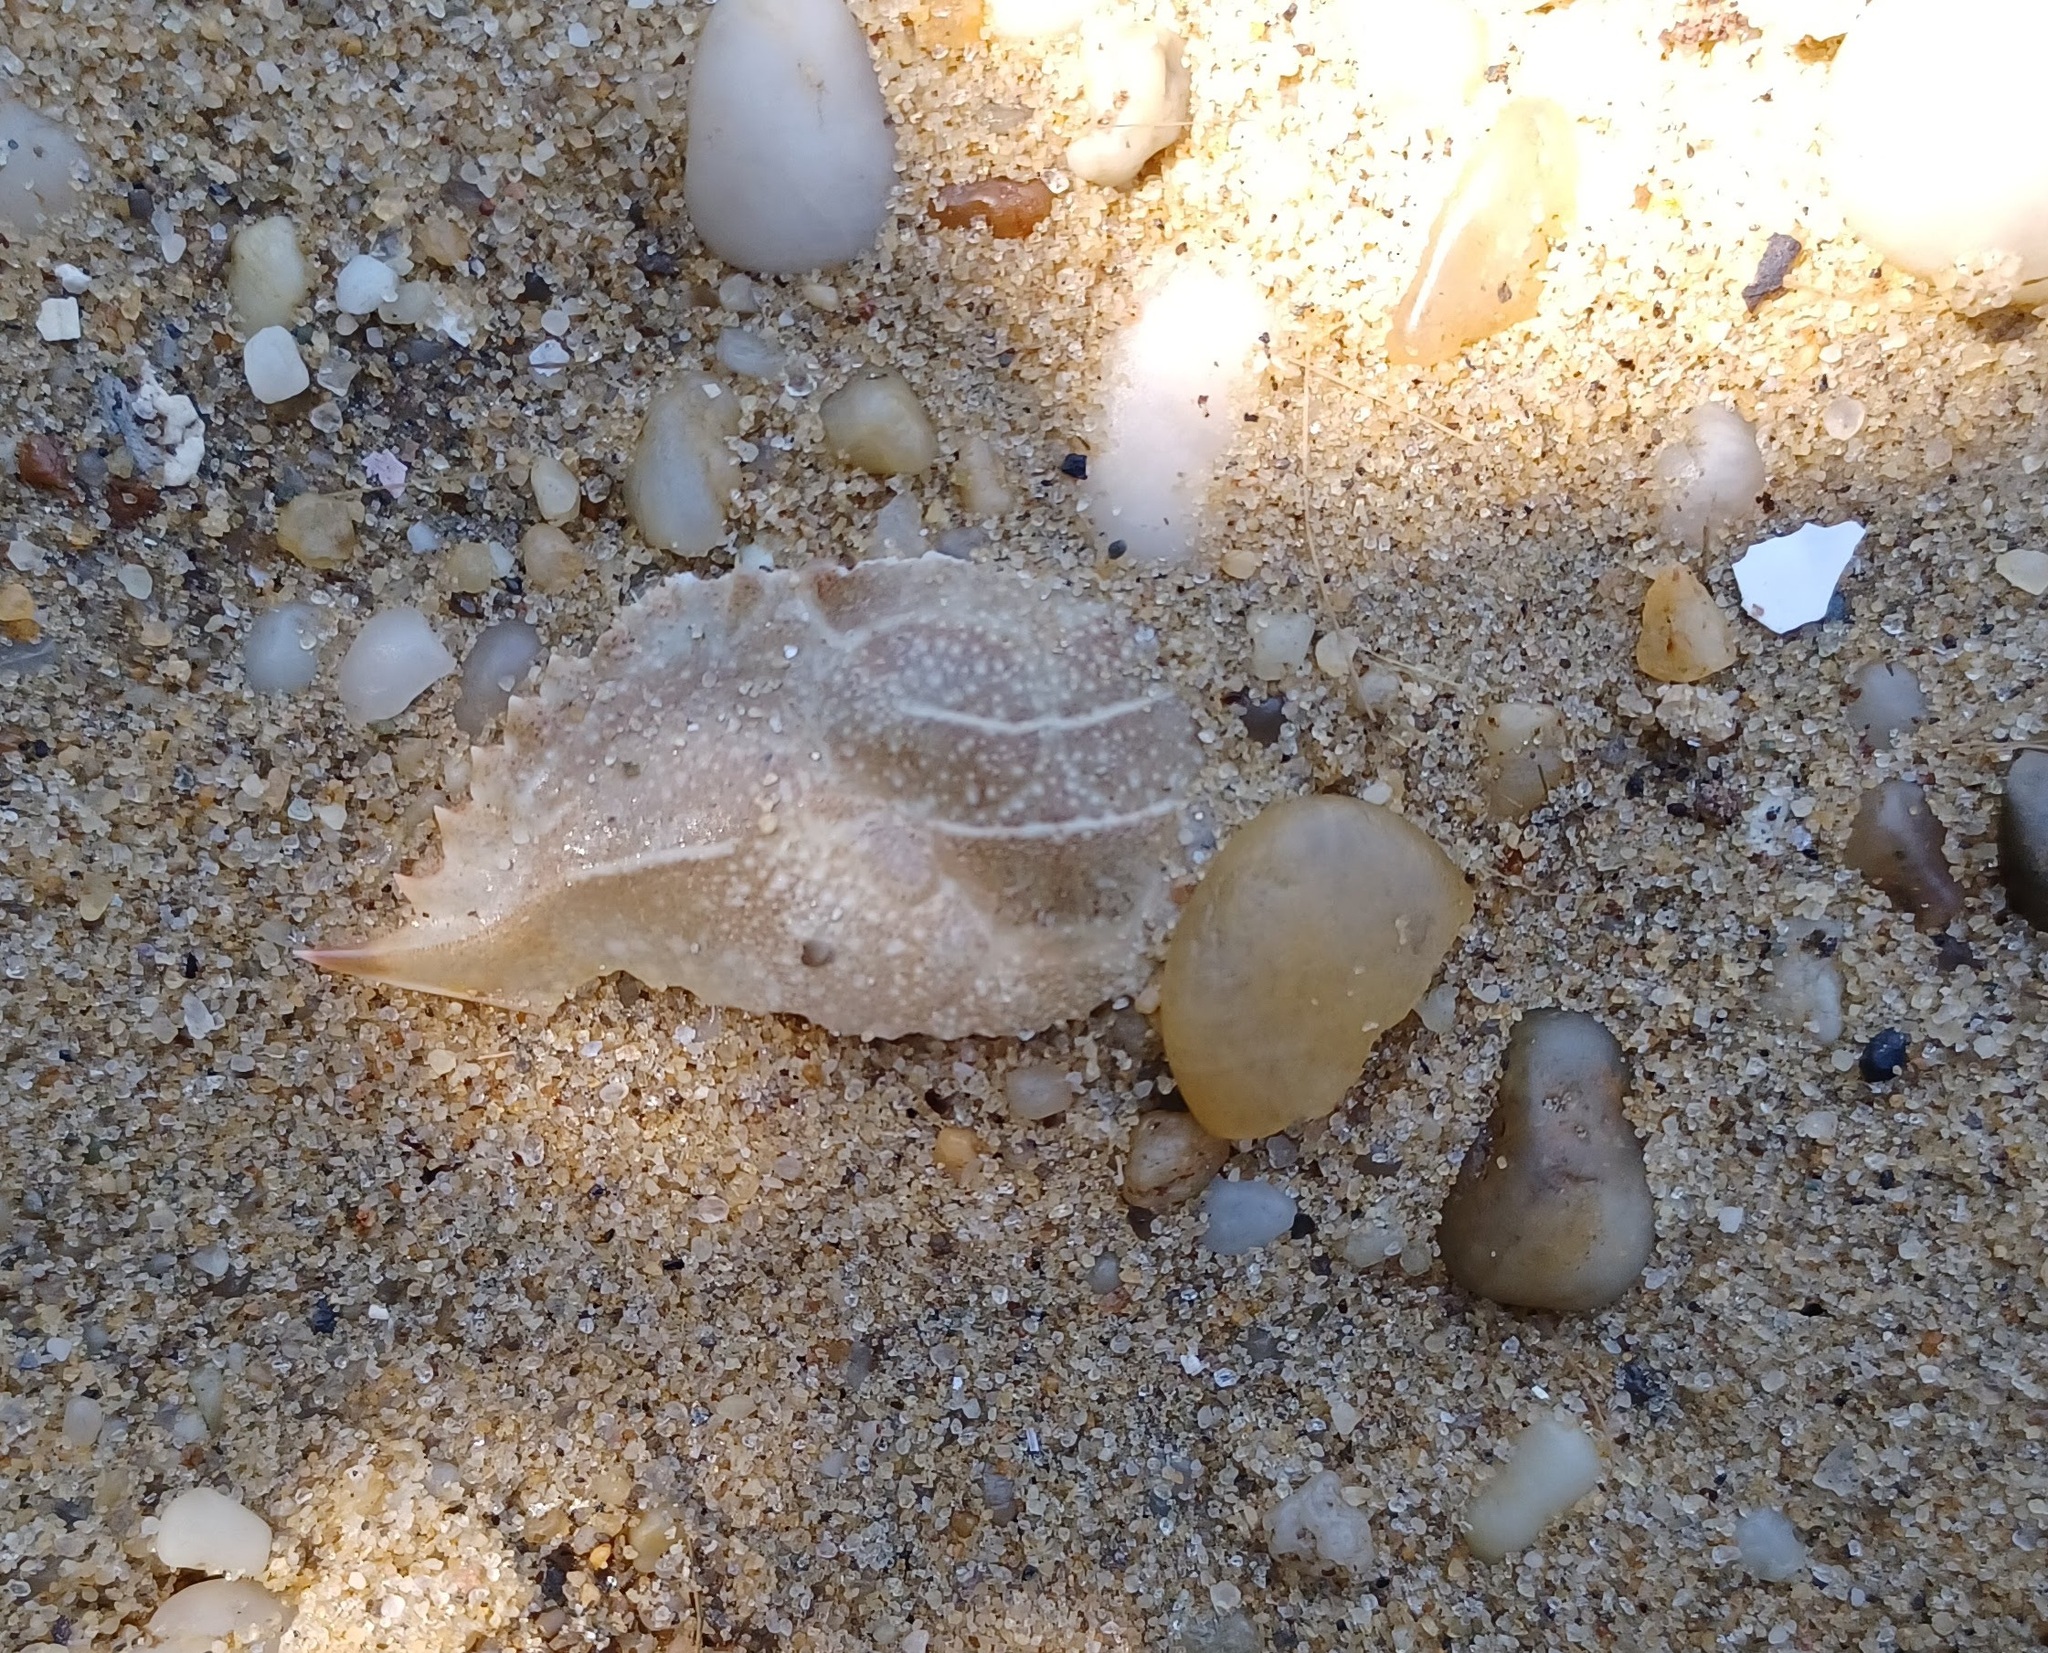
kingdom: Animalia
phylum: Arthropoda
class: Malacostraca
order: Decapoda
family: Portunidae
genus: Callinectes
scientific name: Callinectes sapidus
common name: Blue crab
